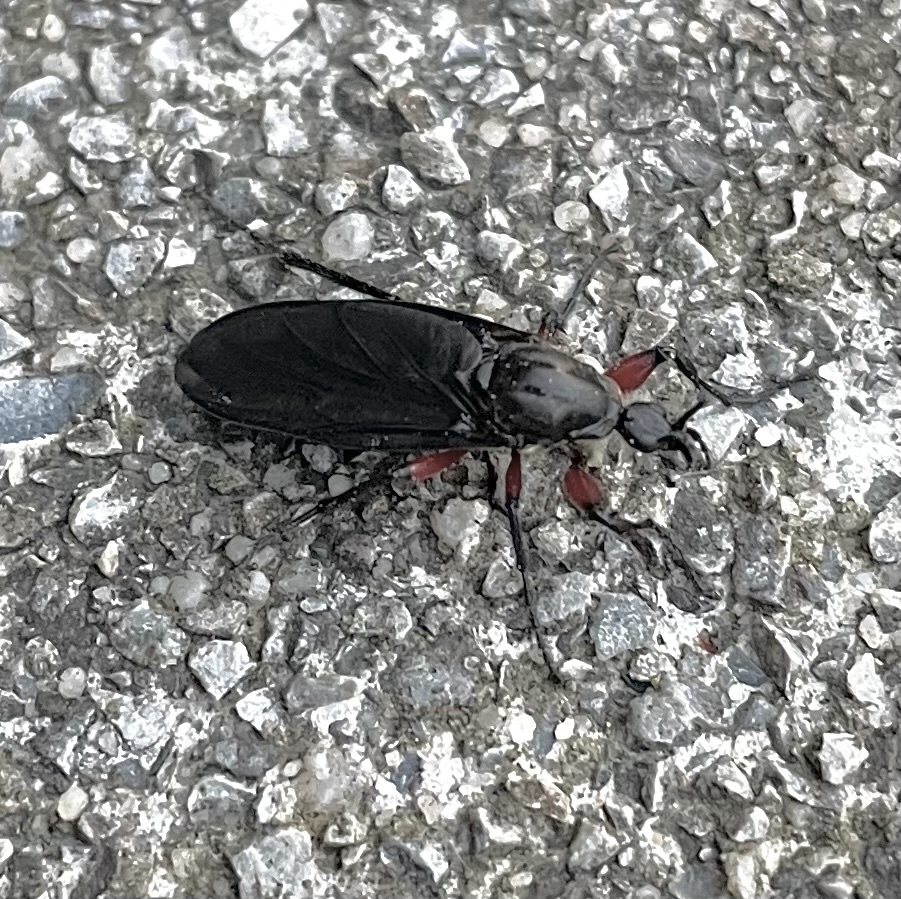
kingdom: Animalia
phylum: Arthropoda
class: Insecta
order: Diptera
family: Bibionidae
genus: Bibio
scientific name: Bibio femoratus
